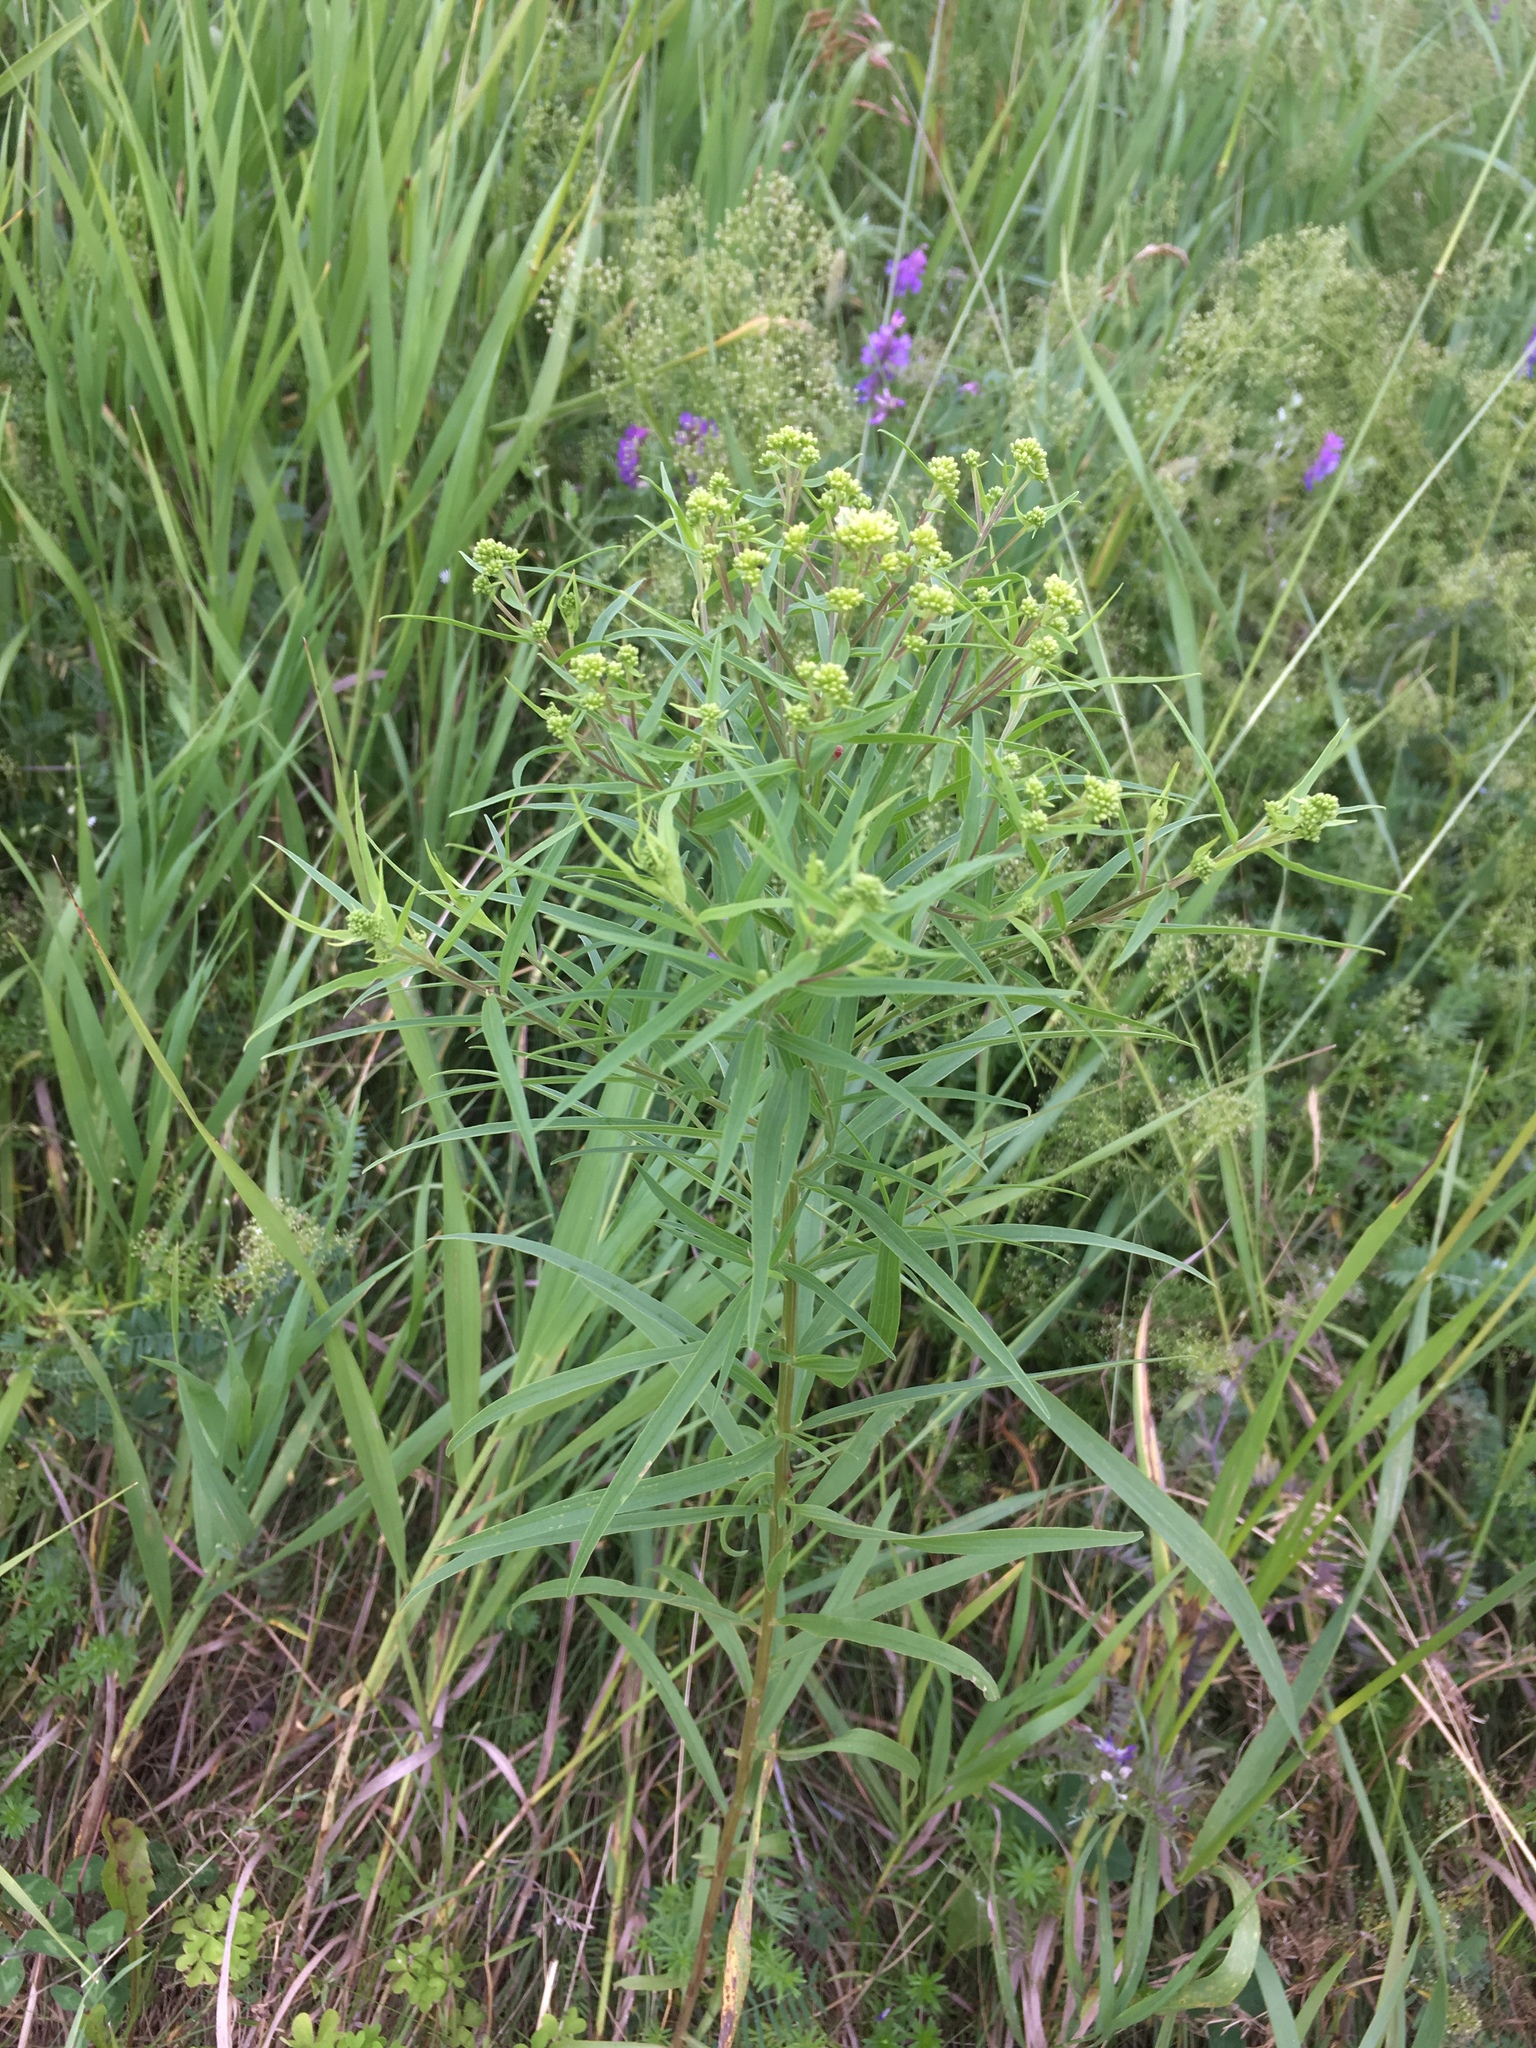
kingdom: Plantae
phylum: Tracheophyta
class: Magnoliopsida
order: Asterales
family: Asteraceae
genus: Euthamia
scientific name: Euthamia graminifolia
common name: Common goldentop
